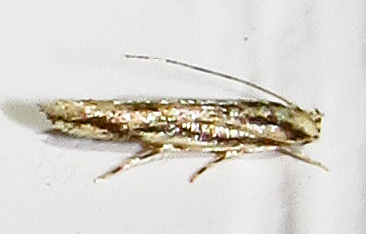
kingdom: Animalia
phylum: Arthropoda
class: Insecta
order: Lepidoptera
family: Cosmopterigidae
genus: Melanocinclis
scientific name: Melanocinclis lineigera
